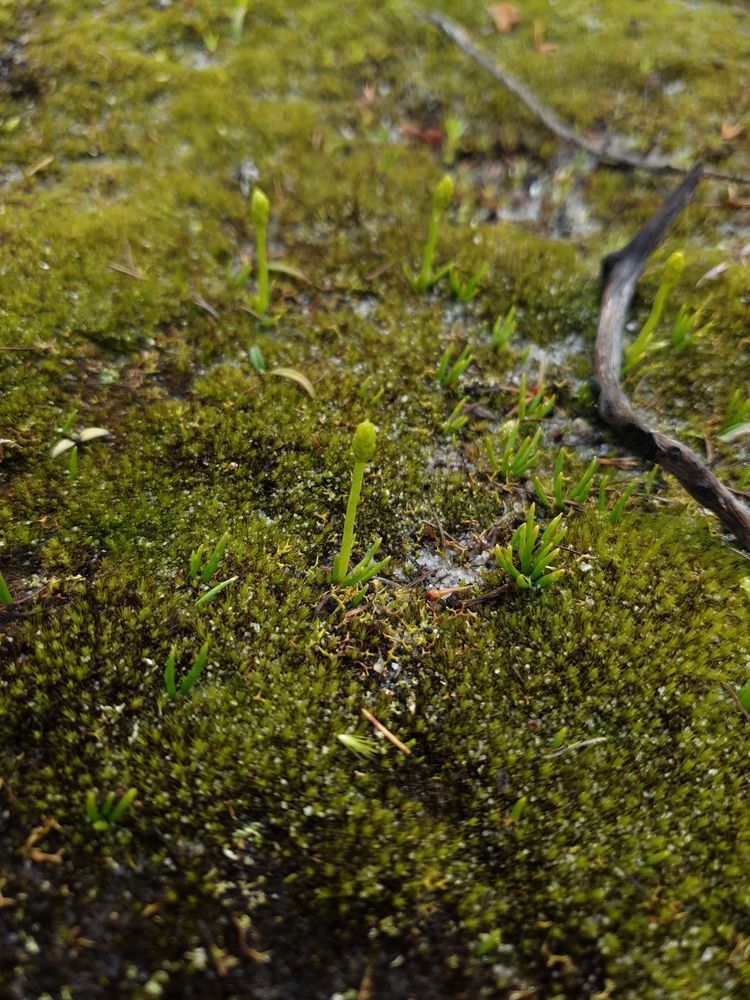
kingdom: Plantae
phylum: Tracheophyta
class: Lycopodiopsida
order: Lycopodiales
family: Lycopodiaceae
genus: Phylloglossum
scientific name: Phylloglossum drummondii
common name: Pigmy-club-moss
